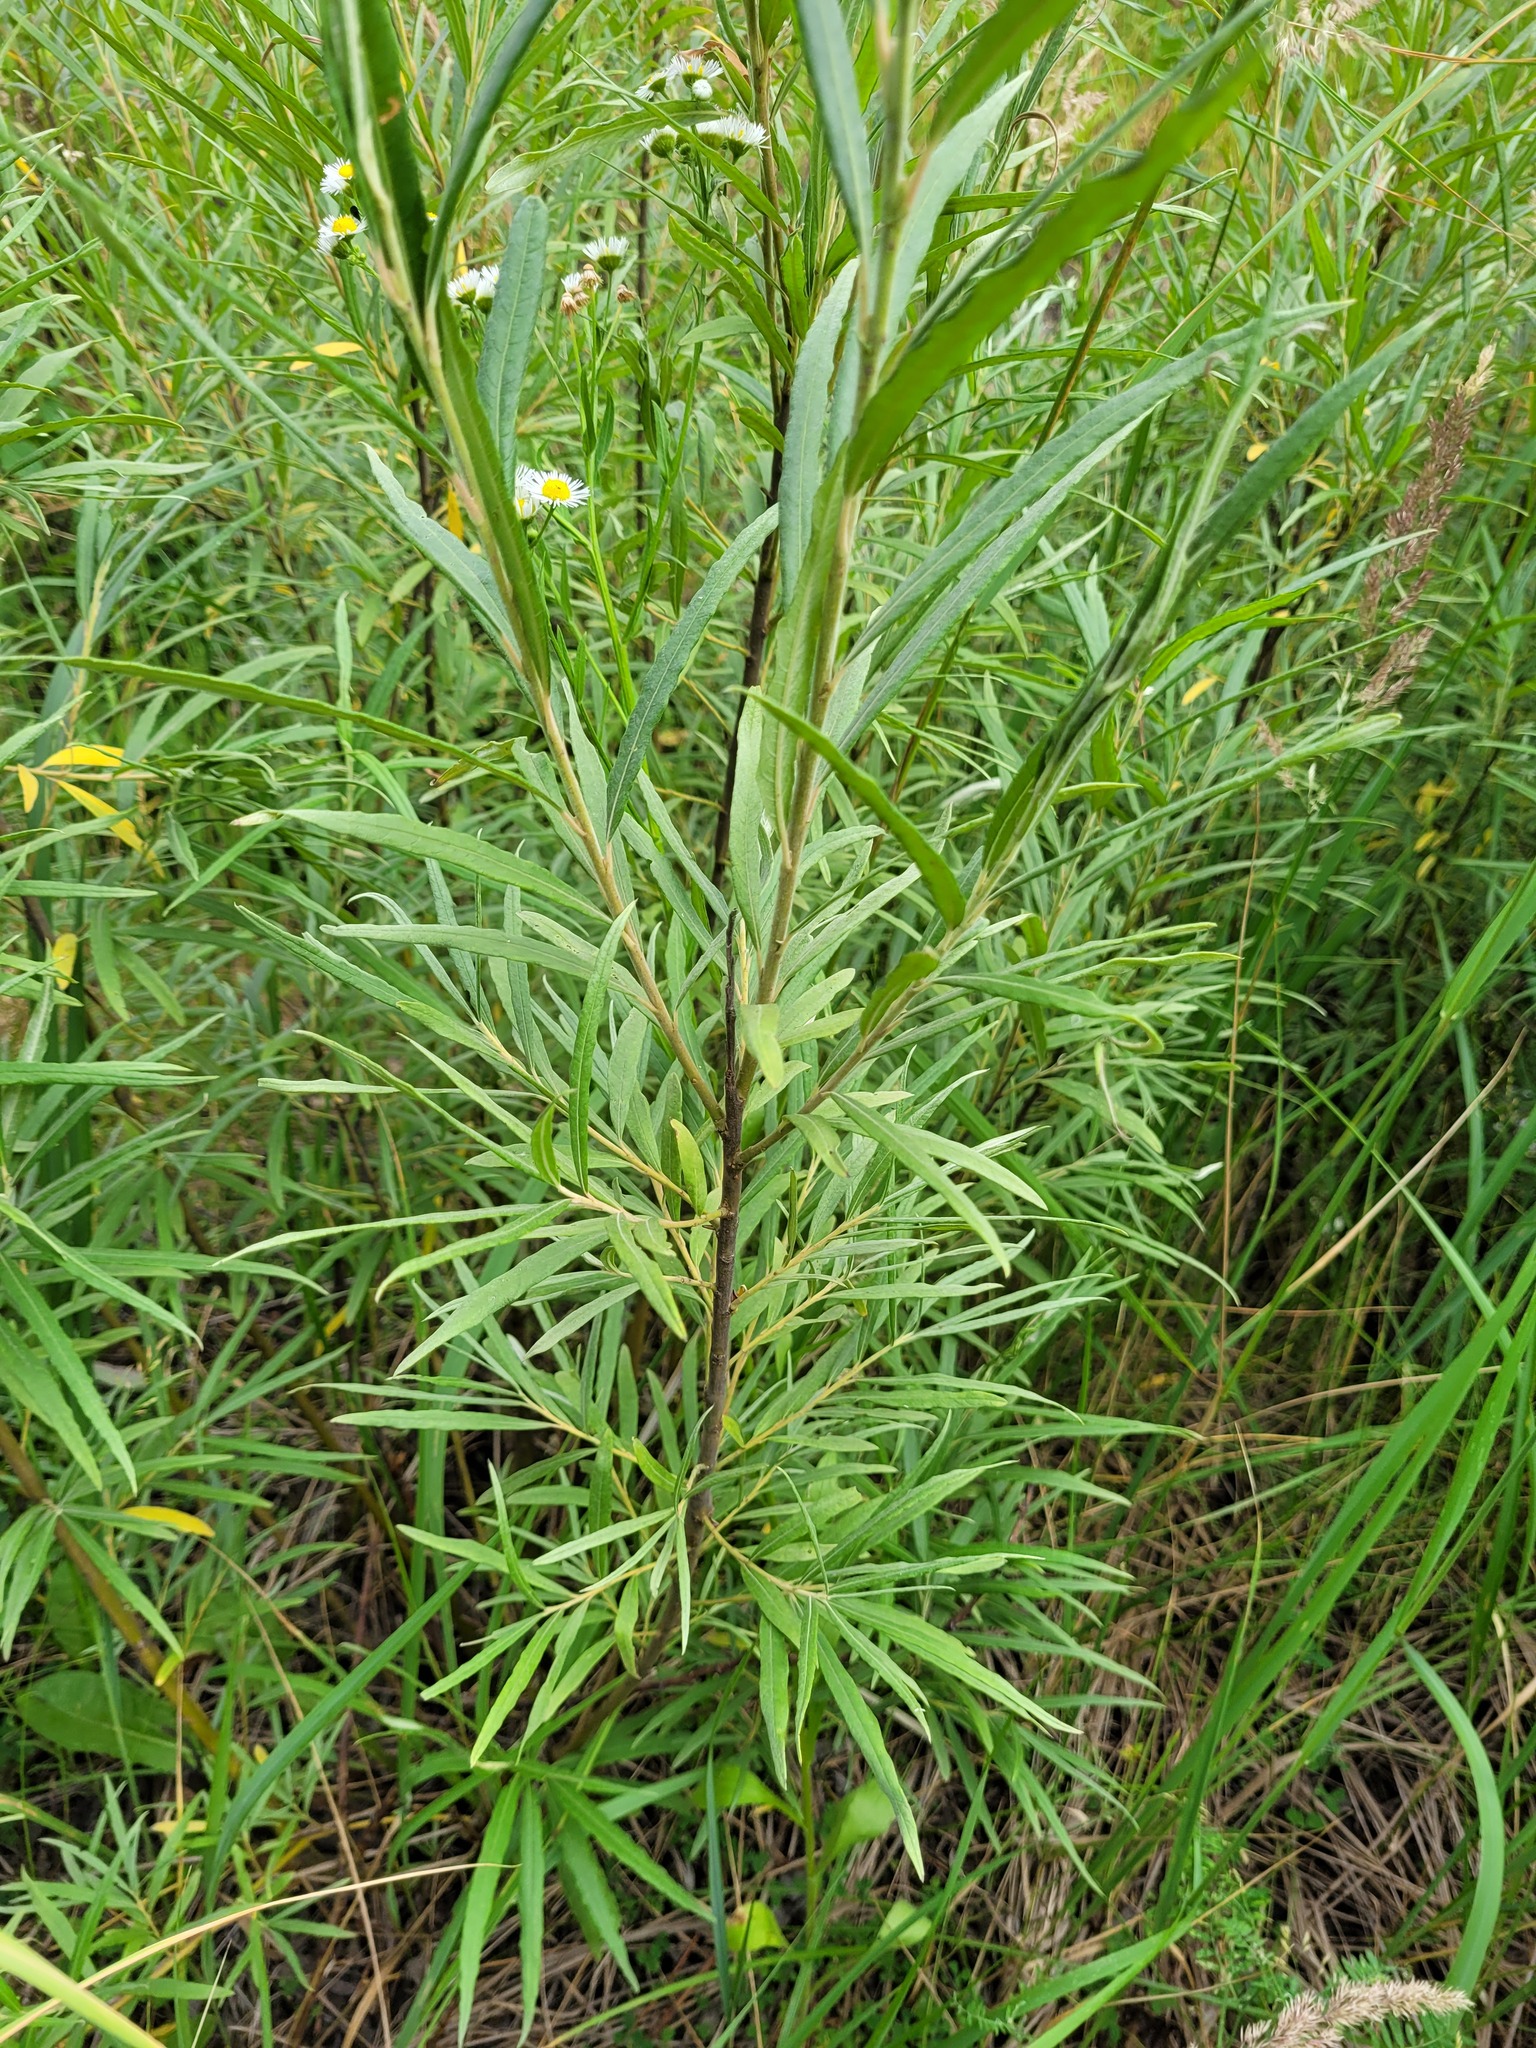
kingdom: Plantae
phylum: Tracheophyta
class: Magnoliopsida
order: Malpighiales
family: Salicaceae
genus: Salix
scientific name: Salix viminalis
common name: Osier
